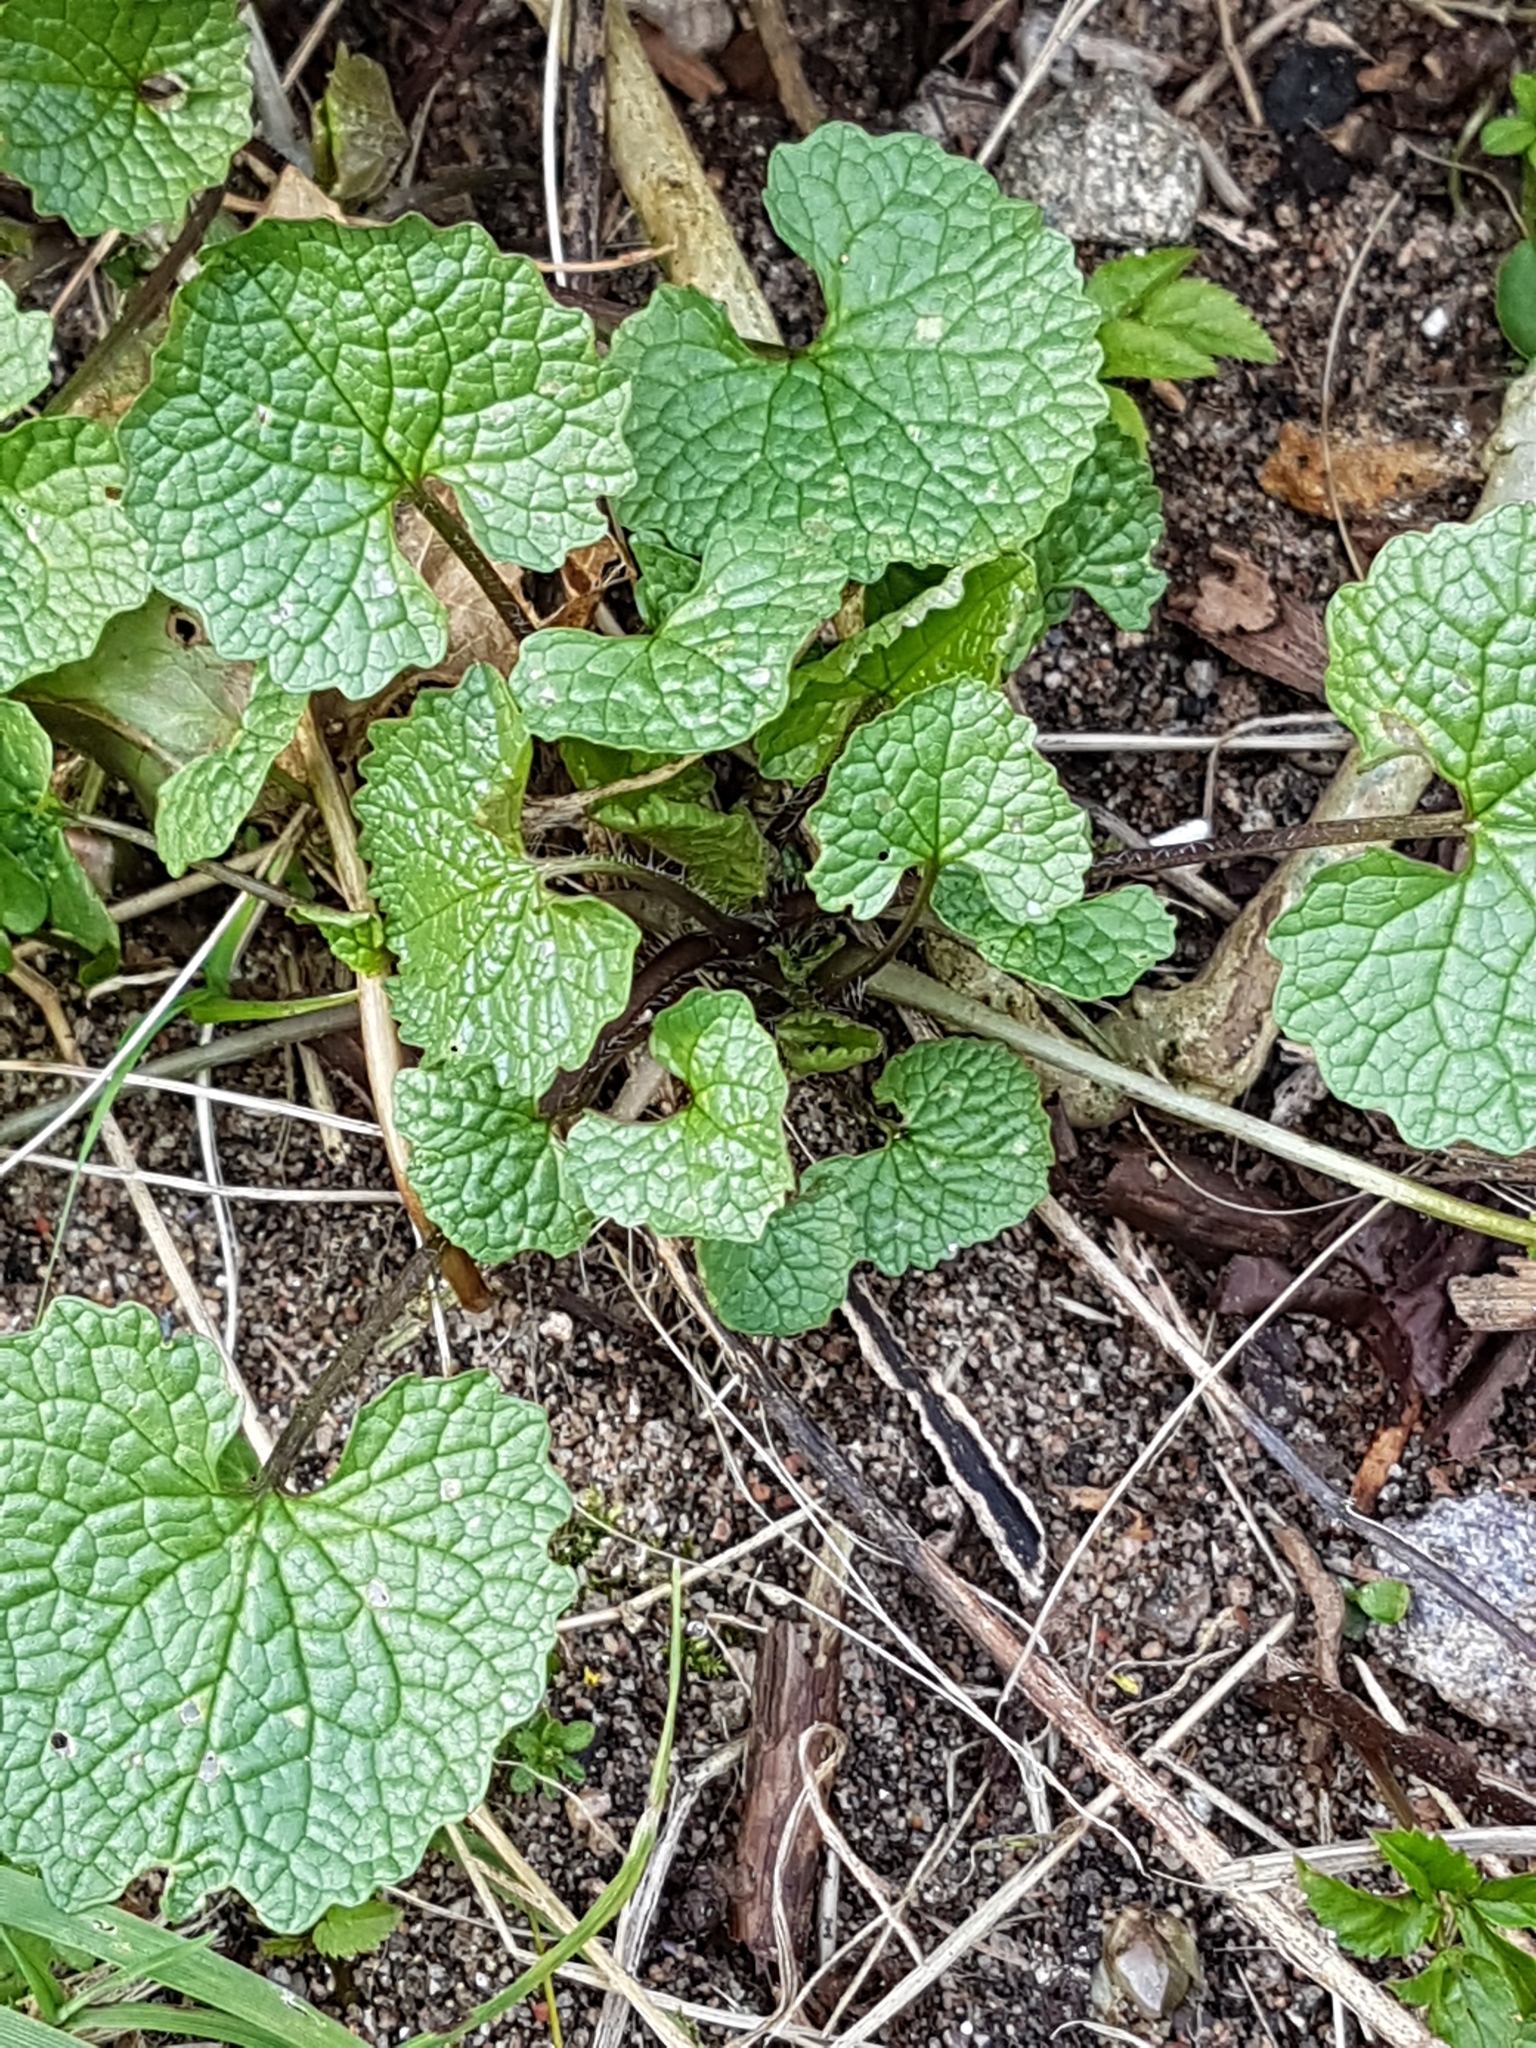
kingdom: Plantae
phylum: Tracheophyta
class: Magnoliopsida
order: Brassicales
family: Brassicaceae
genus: Alliaria
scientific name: Alliaria petiolata
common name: Garlic mustard
